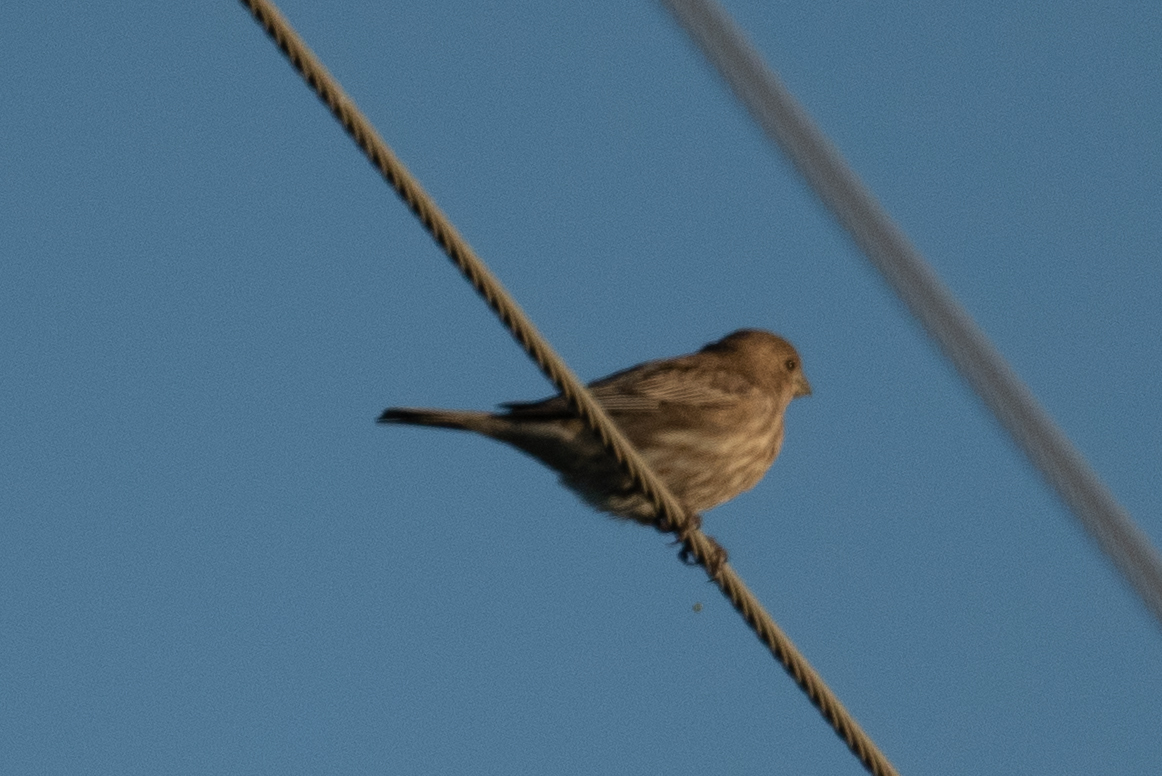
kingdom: Animalia
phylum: Chordata
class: Aves
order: Passeriformes
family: Fringillidae
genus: Haemorhous
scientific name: Haemorhous mexicanus
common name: House finch
